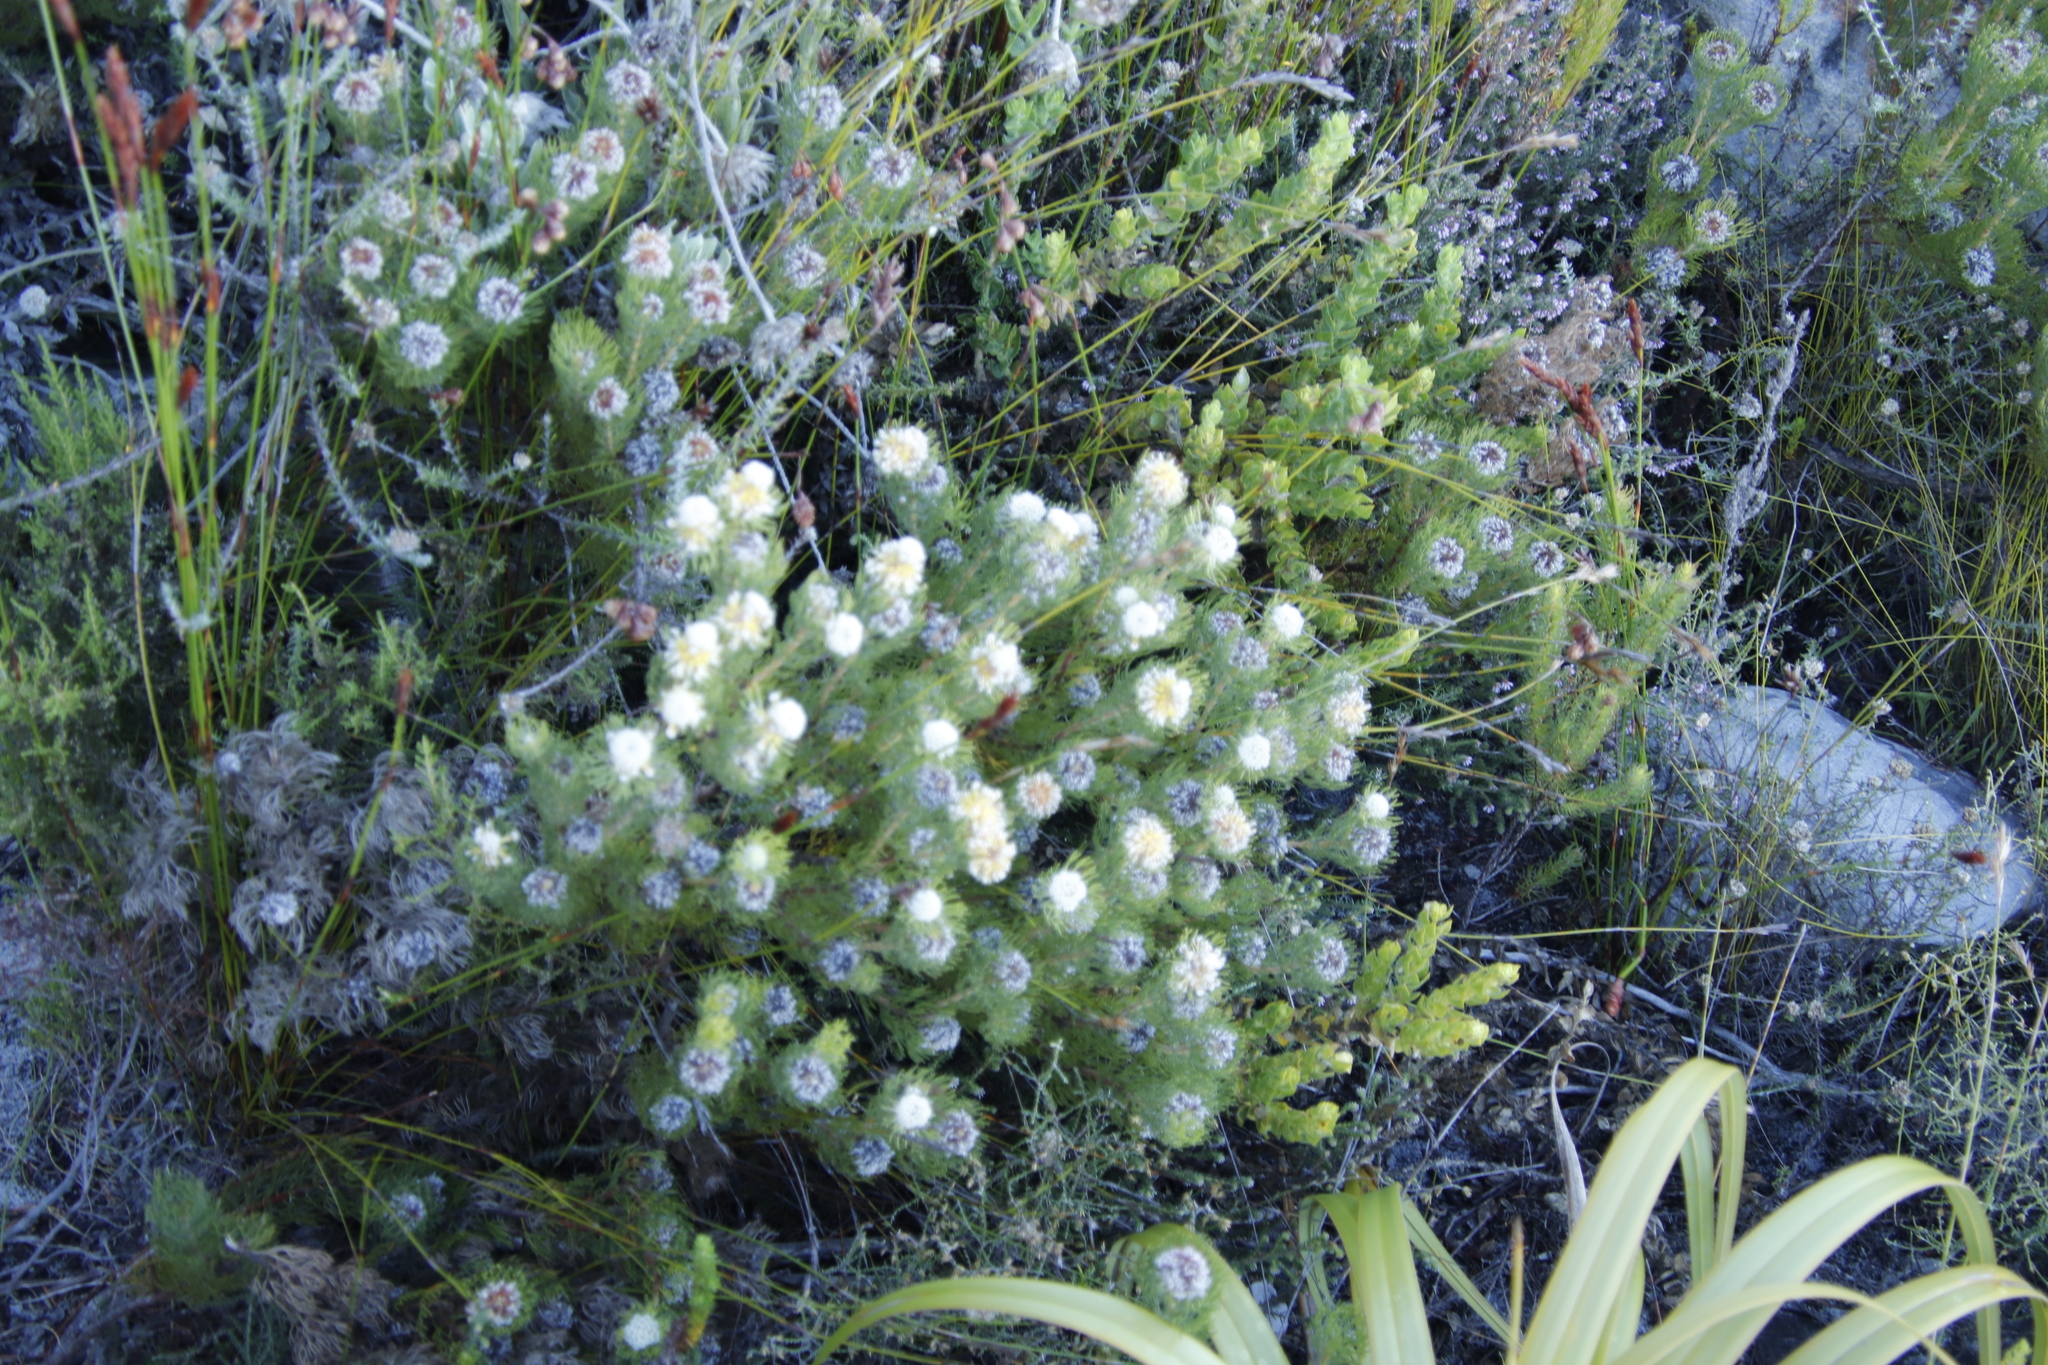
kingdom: Plantae
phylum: Tracheophyta
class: Magnoliopsida
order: Proteales
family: Proteaceae
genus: Serruria
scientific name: Serruria villosa
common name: Golden spiderhead
